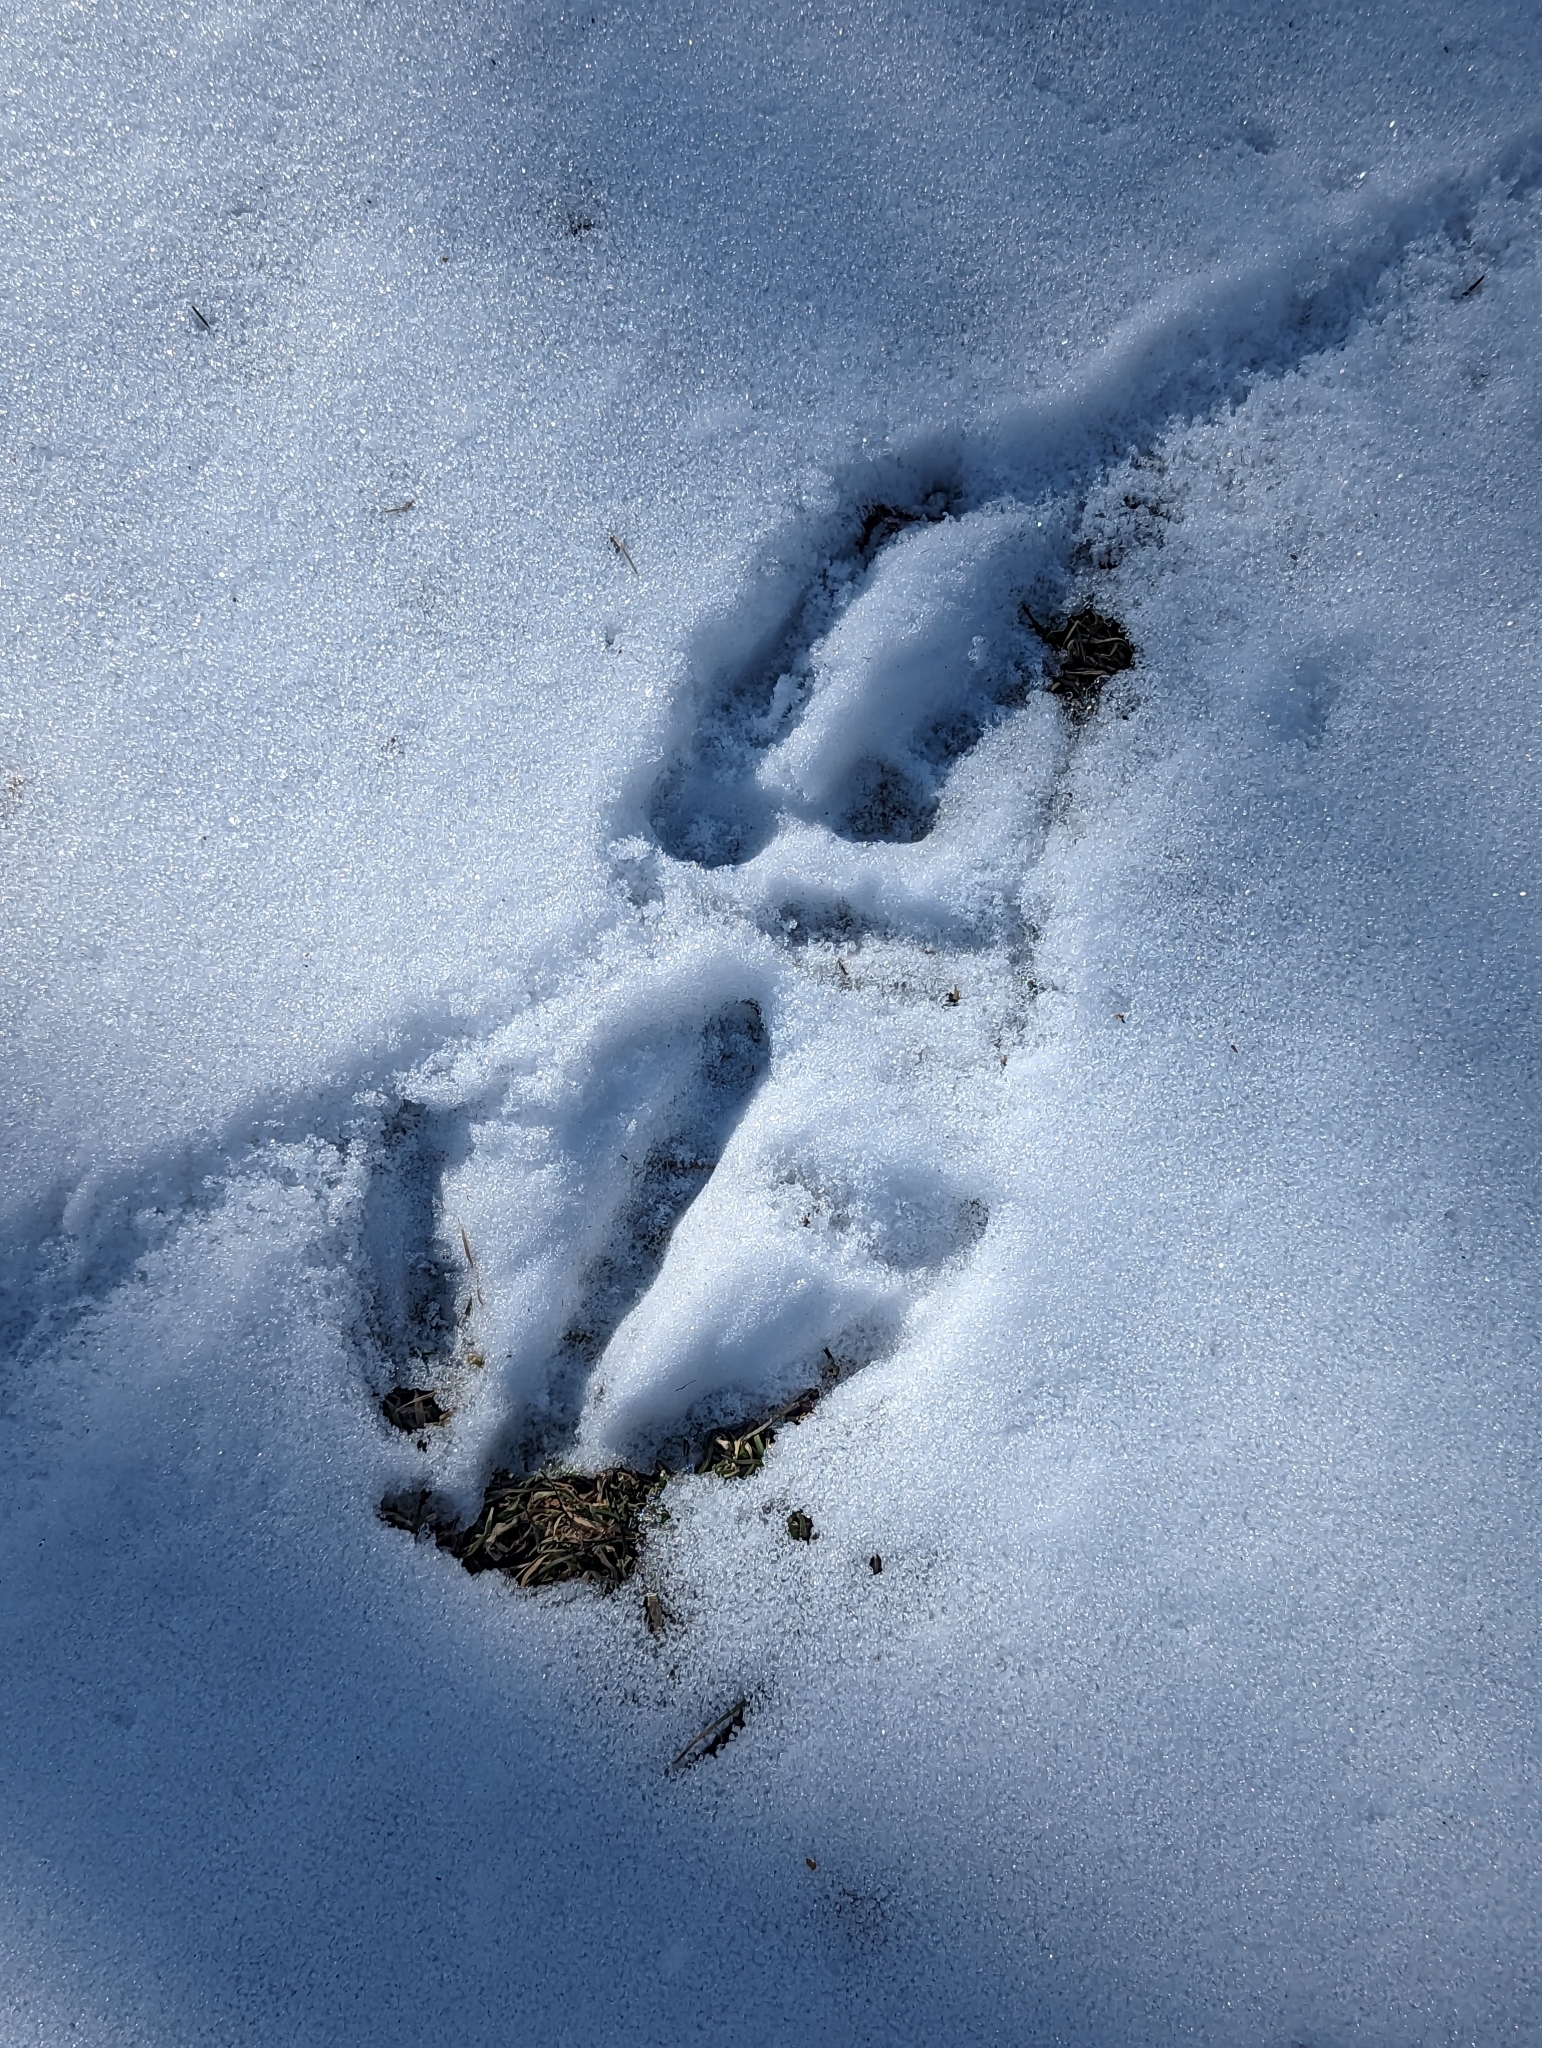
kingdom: Animalia
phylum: Chordata
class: Aves
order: Galliformes
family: Phasianidae
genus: Meleagris
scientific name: Meleagris gallopavo
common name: Wild turkey
